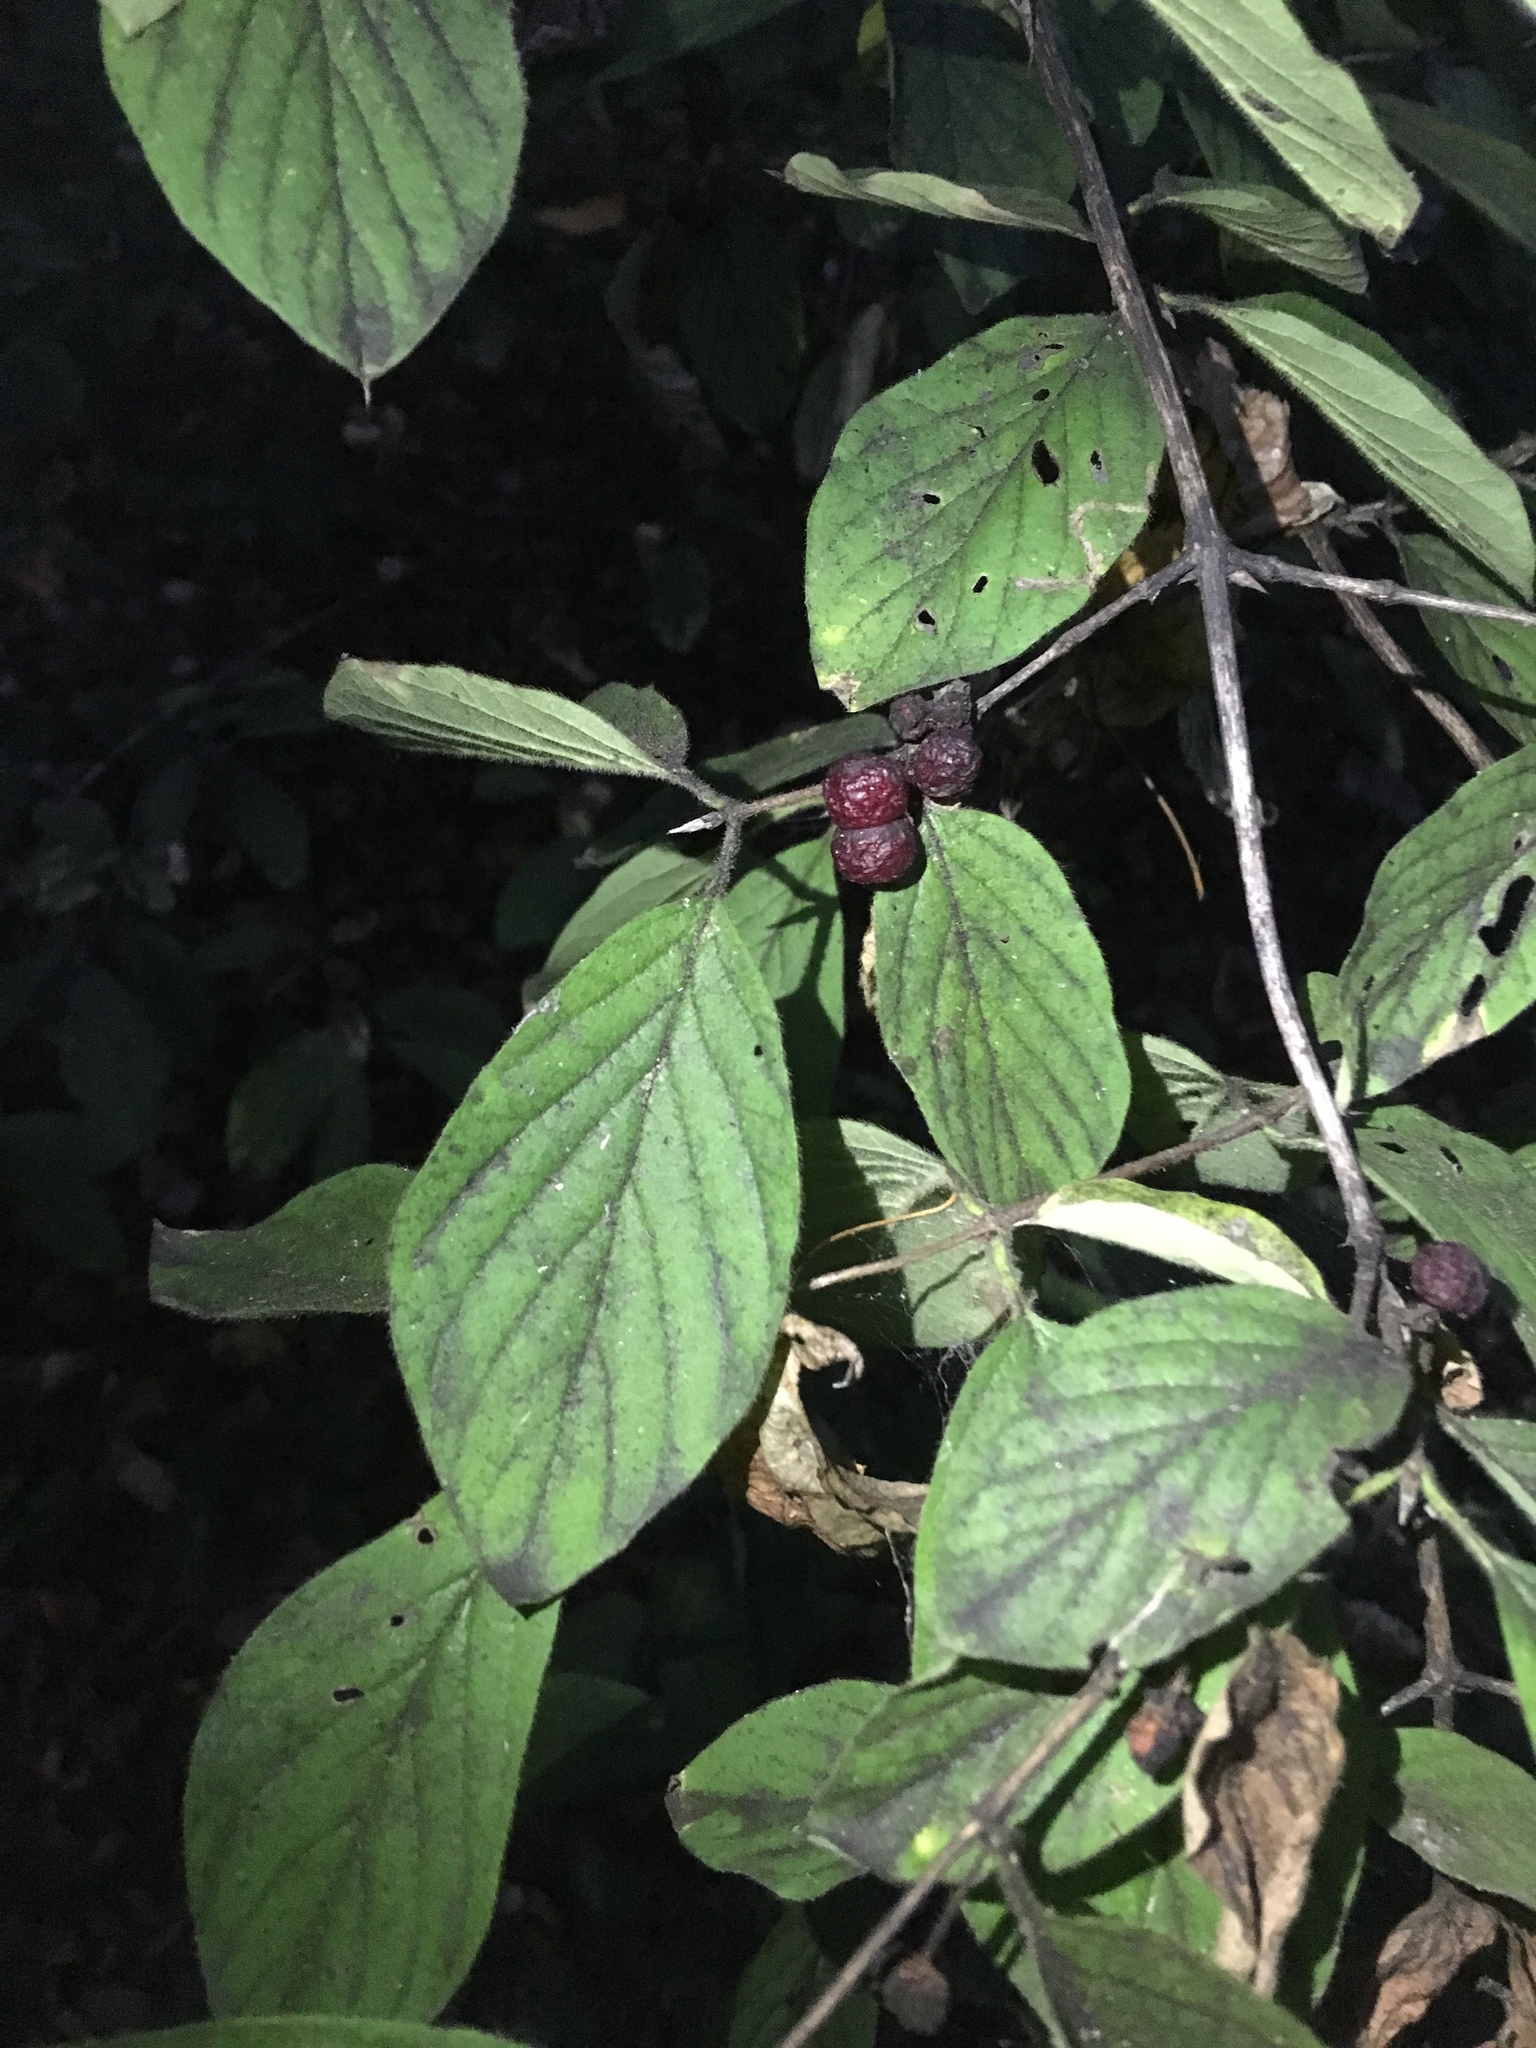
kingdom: Plantae
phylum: Tracheophyta
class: Magnoliopsida
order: Dipsacales
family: Caprifoliaceae
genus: Lonicera
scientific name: Lonicera xylosteum
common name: Fly honeysuckle
